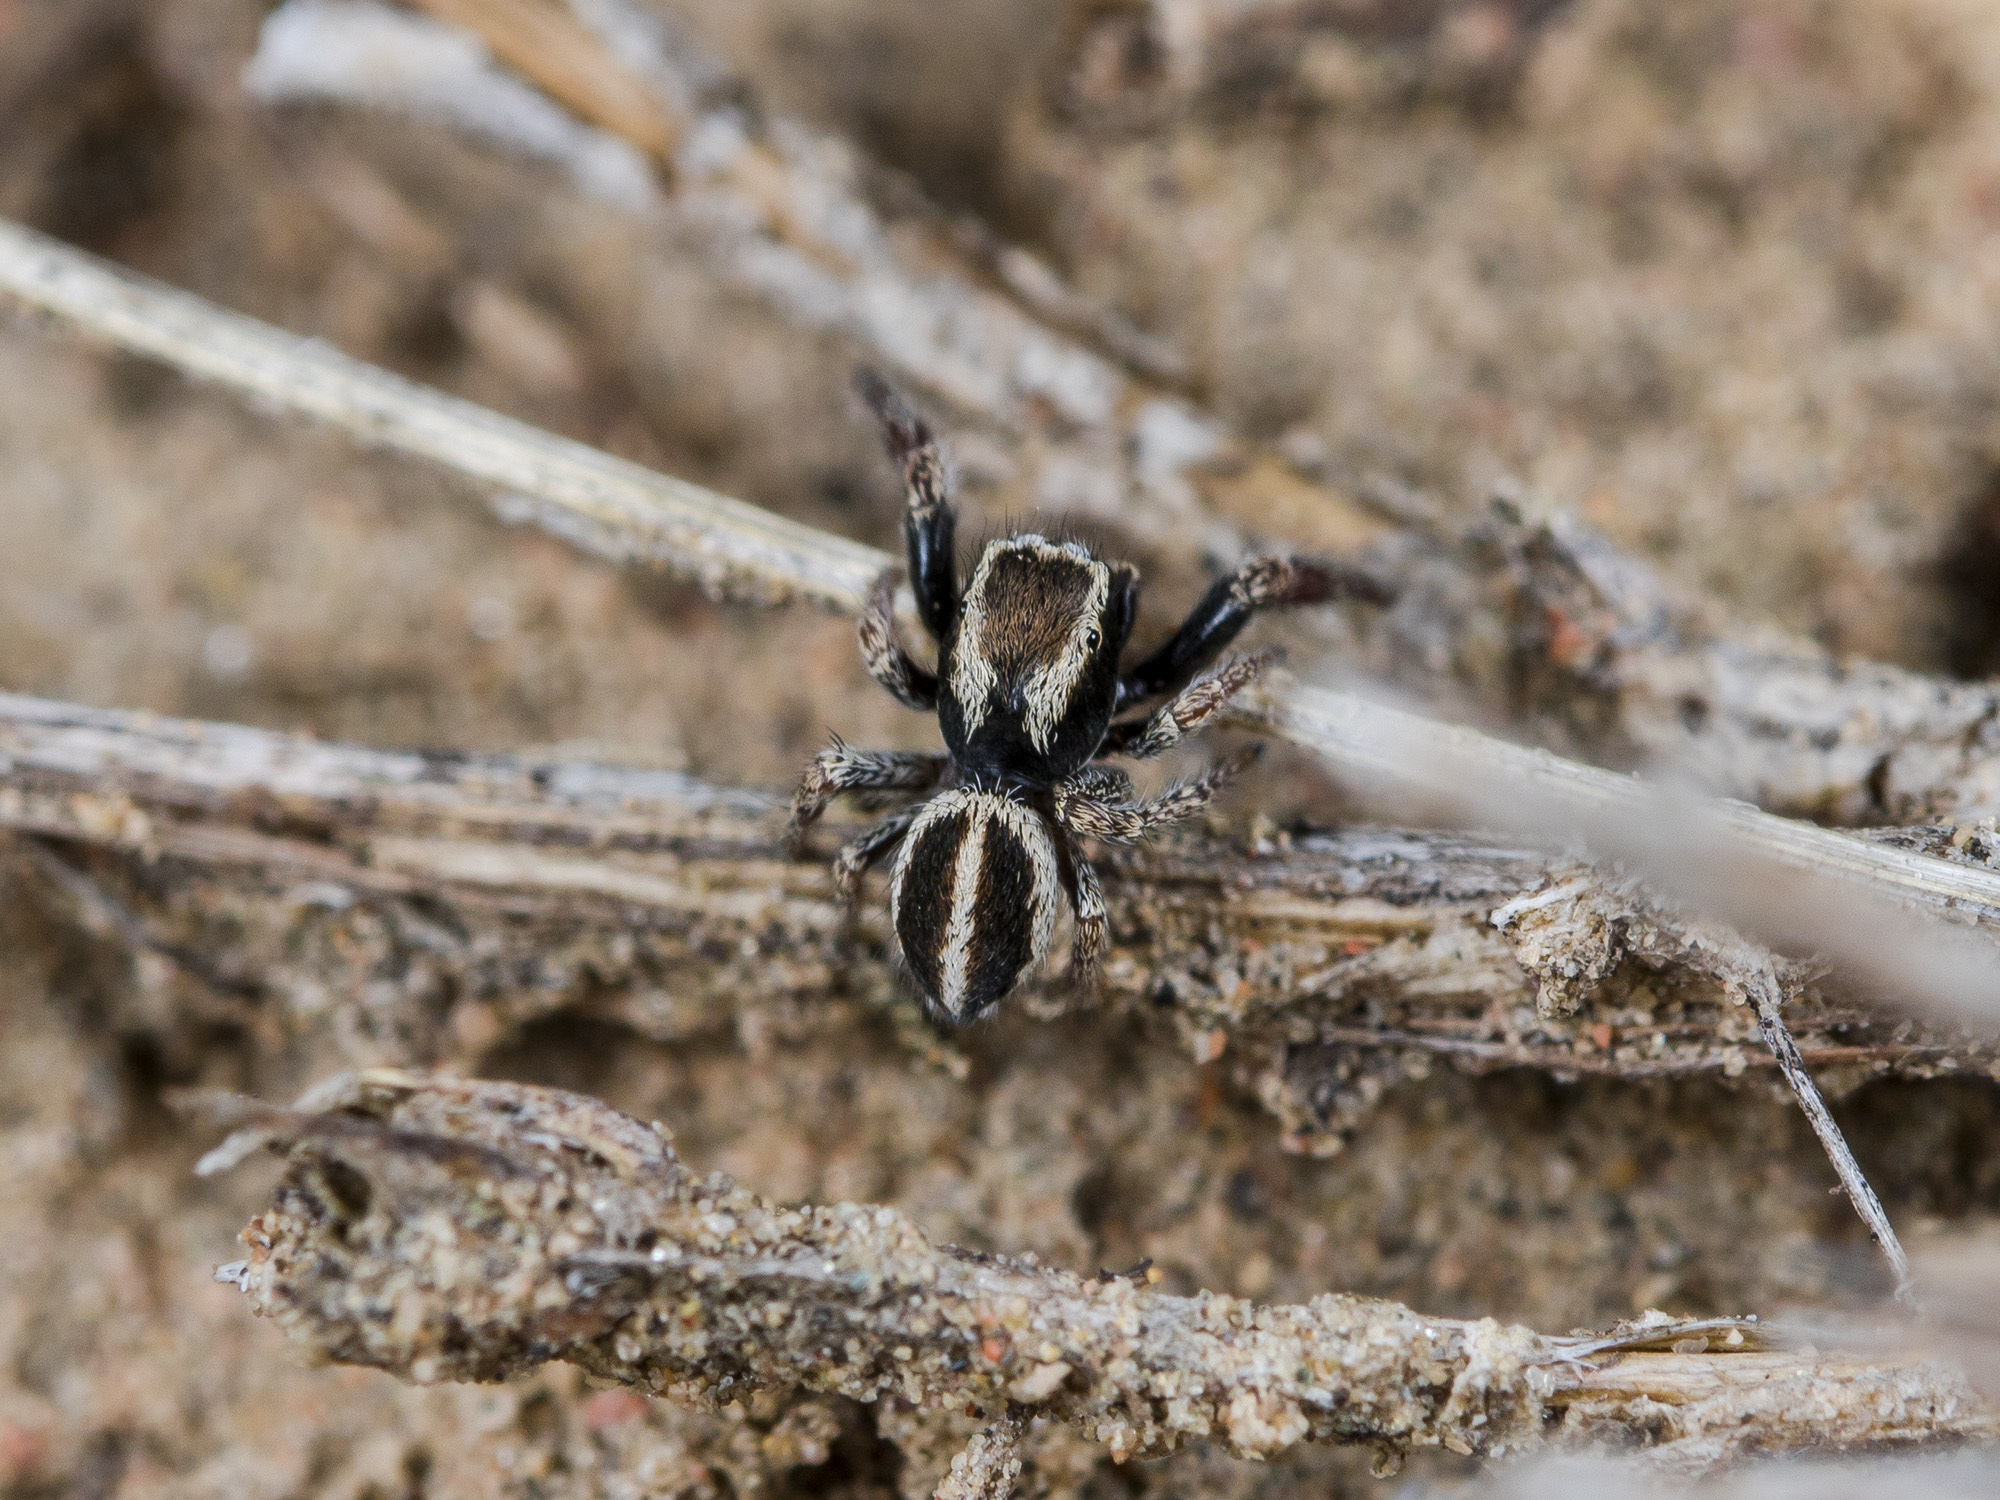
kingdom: Animalia
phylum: Arthropoda
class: Arachnida
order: Araneae
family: Salticidae
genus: Pellenes
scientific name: Pellenes epularis
